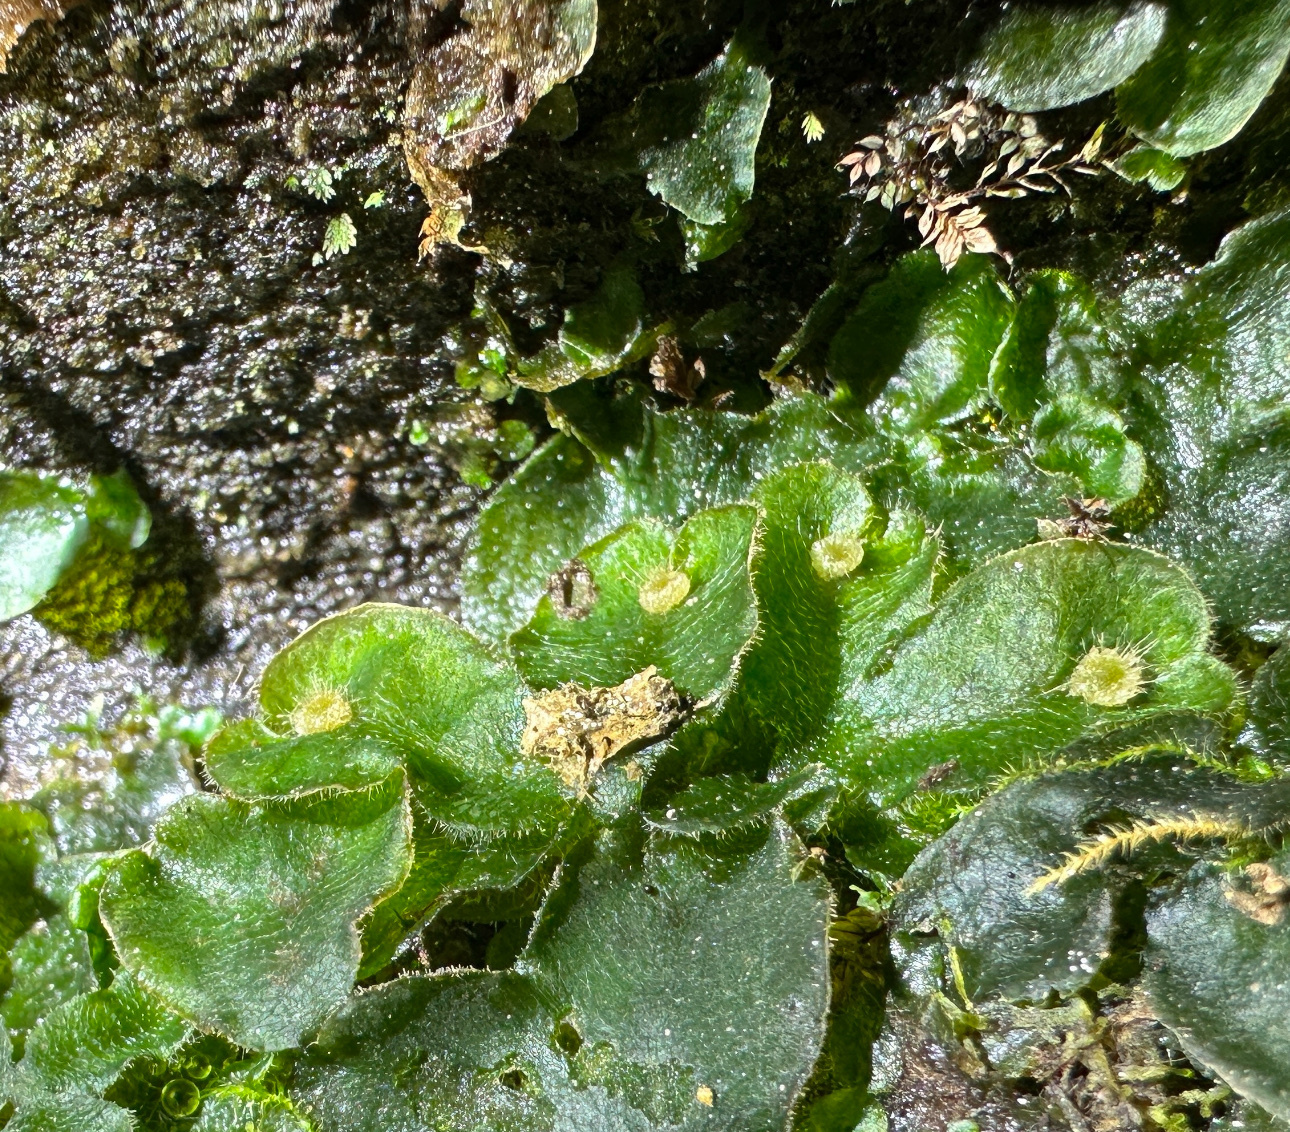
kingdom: Plantae
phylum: Marchantiophyta
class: Marchantiopsida
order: Marchantiales
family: Dumortieraceae
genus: Dumortiera
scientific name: Dumortiera hirsuta
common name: Dumortier's liverwort
